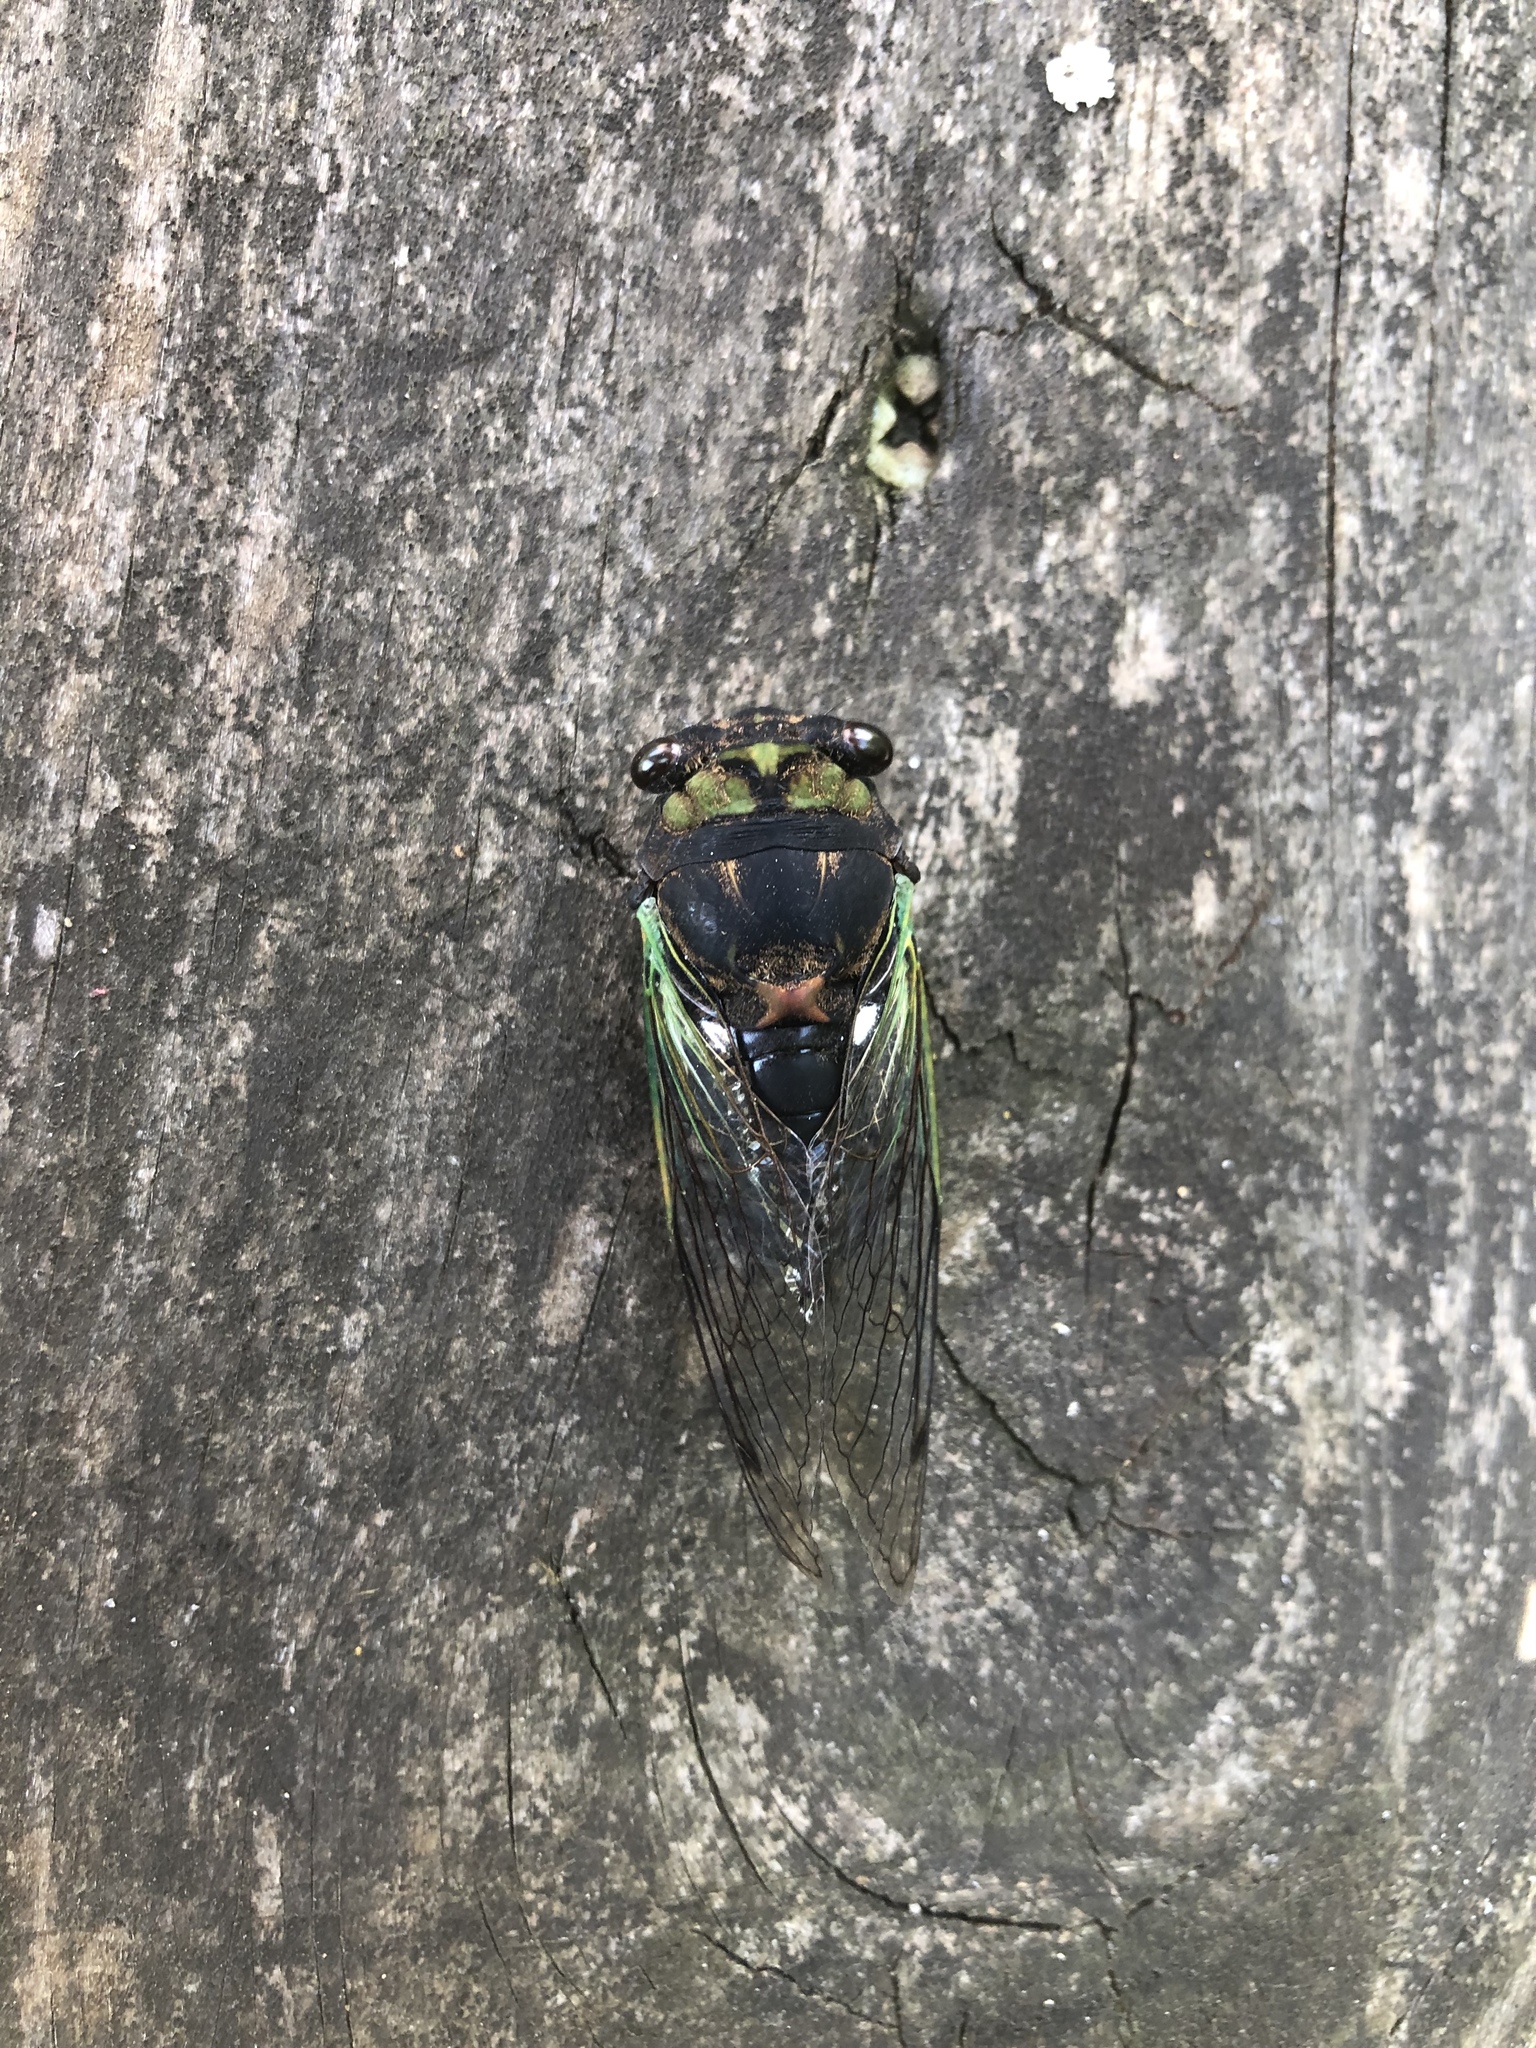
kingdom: Animalia
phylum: Arthropoda
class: Insecta
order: Hemiptera
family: Cicadidae
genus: Neotibicen
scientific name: Neotibicen tibicen
